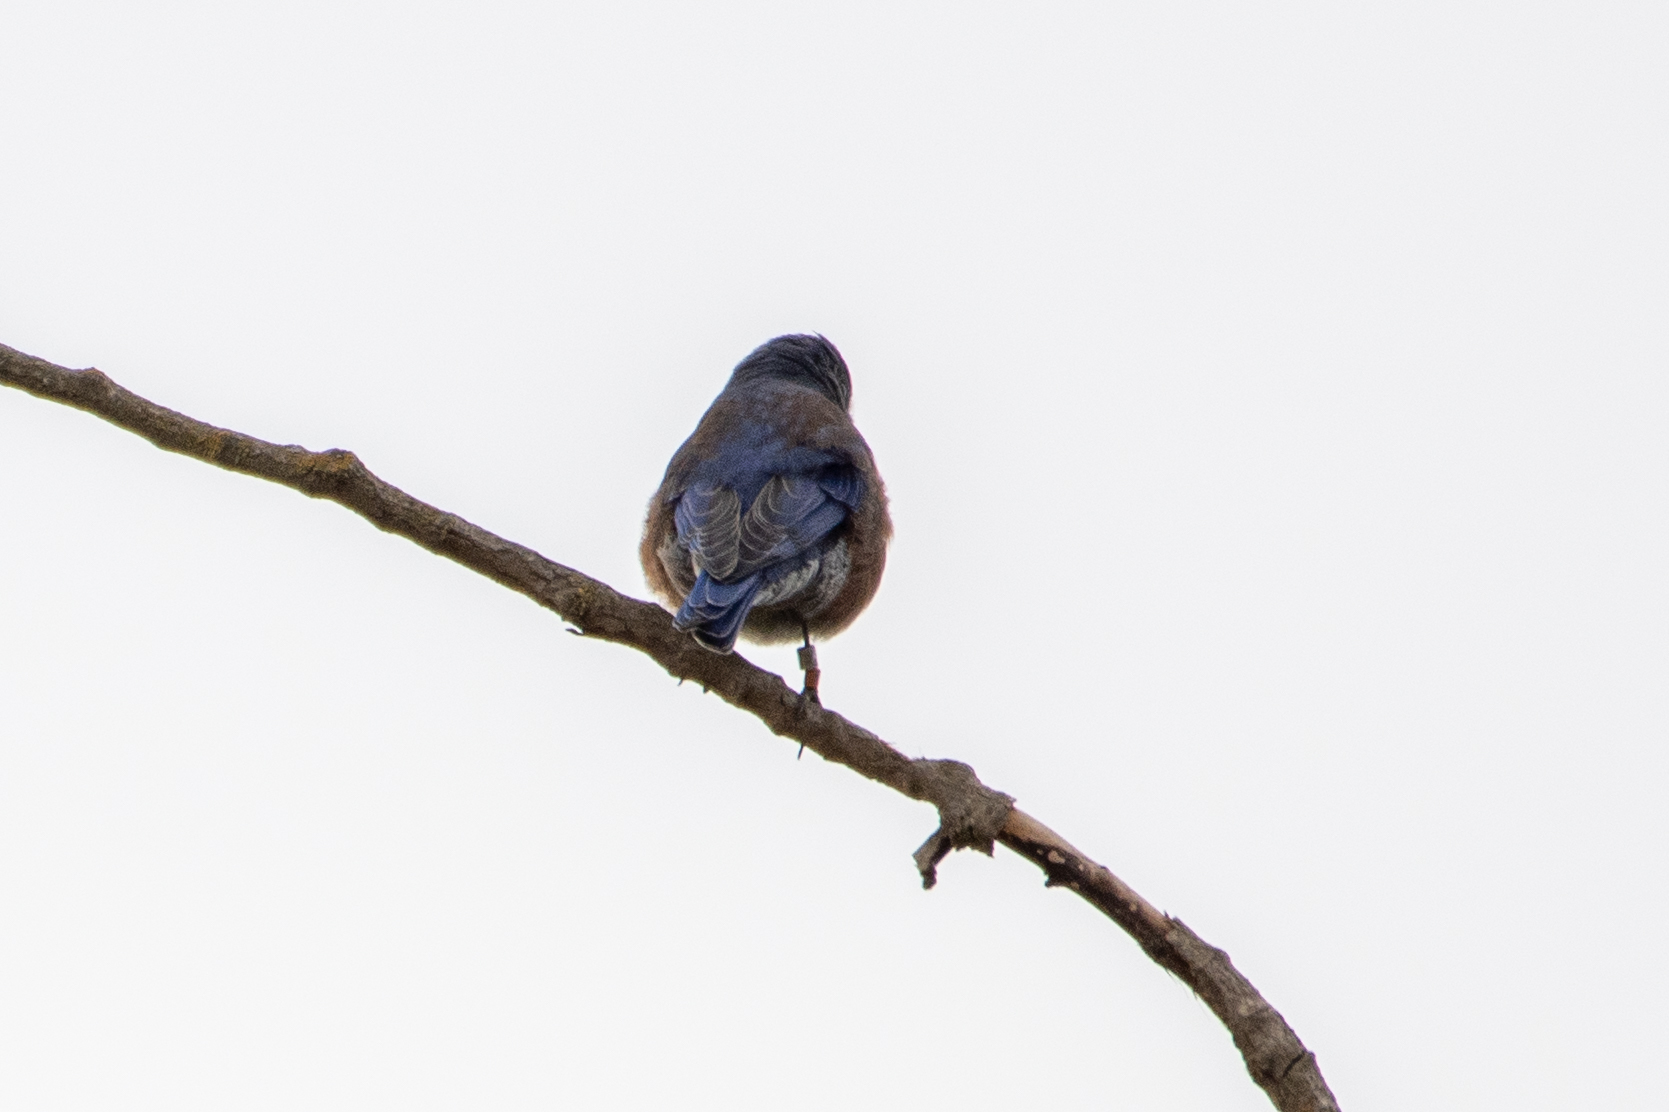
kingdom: Animalia
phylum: Chordata
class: Aves
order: Passeriformes
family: Turdidae
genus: Sialia
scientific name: Sialia mexicana
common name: Western bluebird
